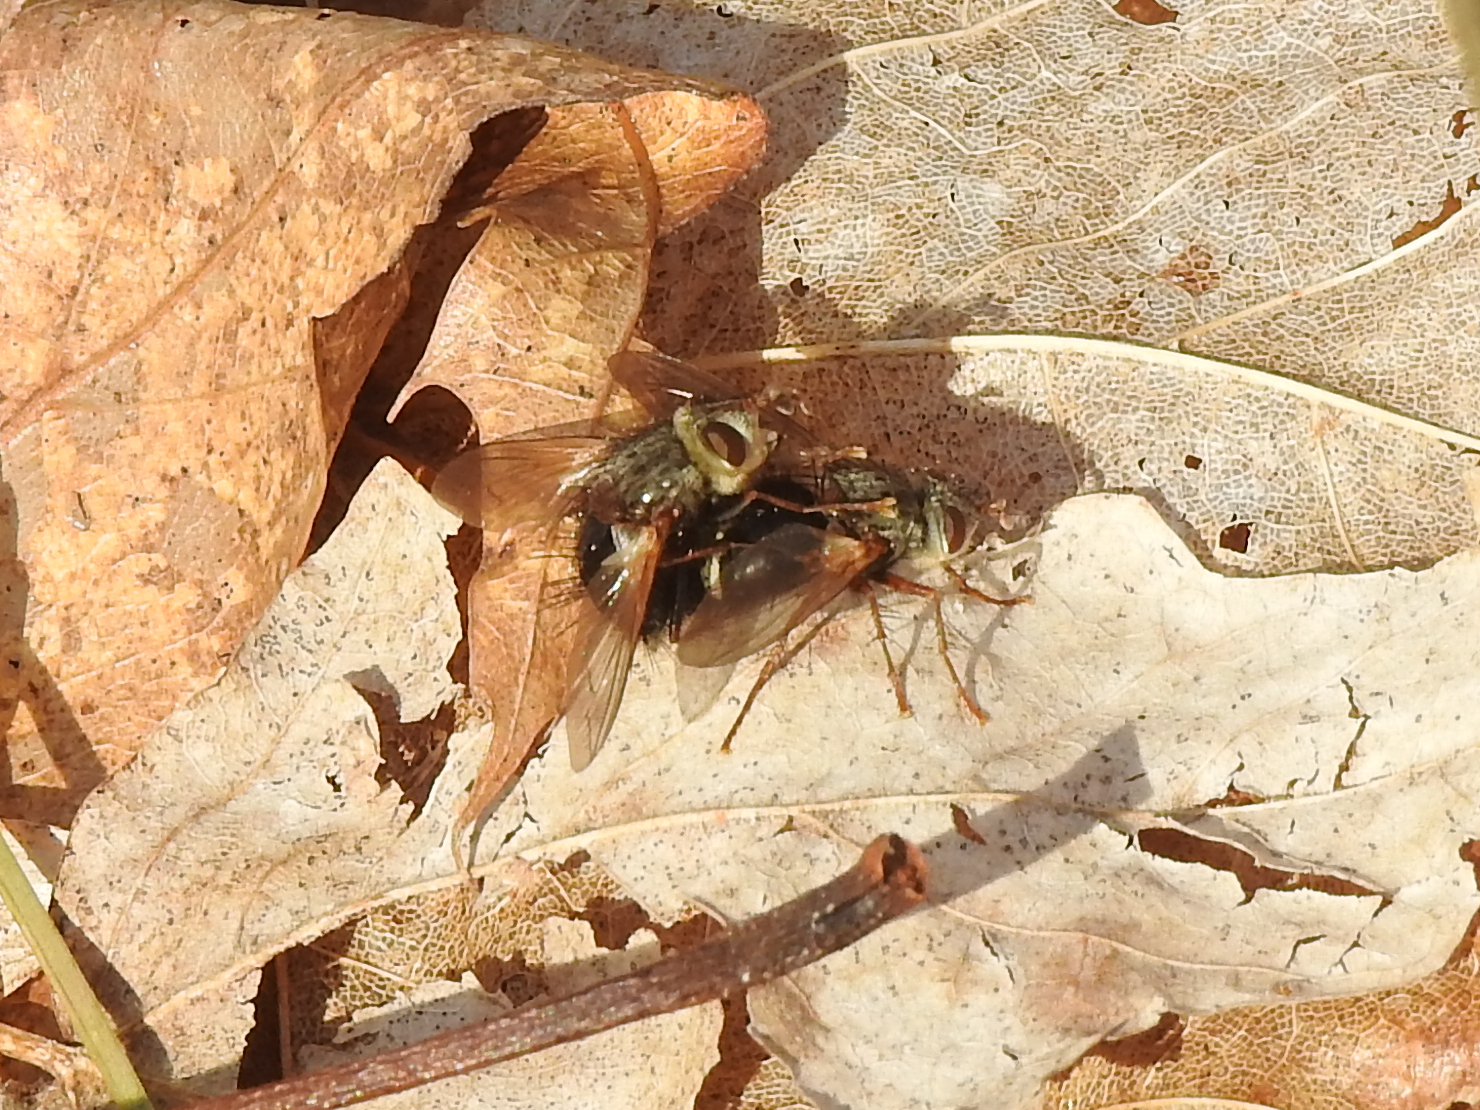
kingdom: Animalia
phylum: Arthropoda
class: Insecta
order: Diptera
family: Tachinidae
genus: Epalpus
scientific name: Epalpus signifer
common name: Early tachinid fly
